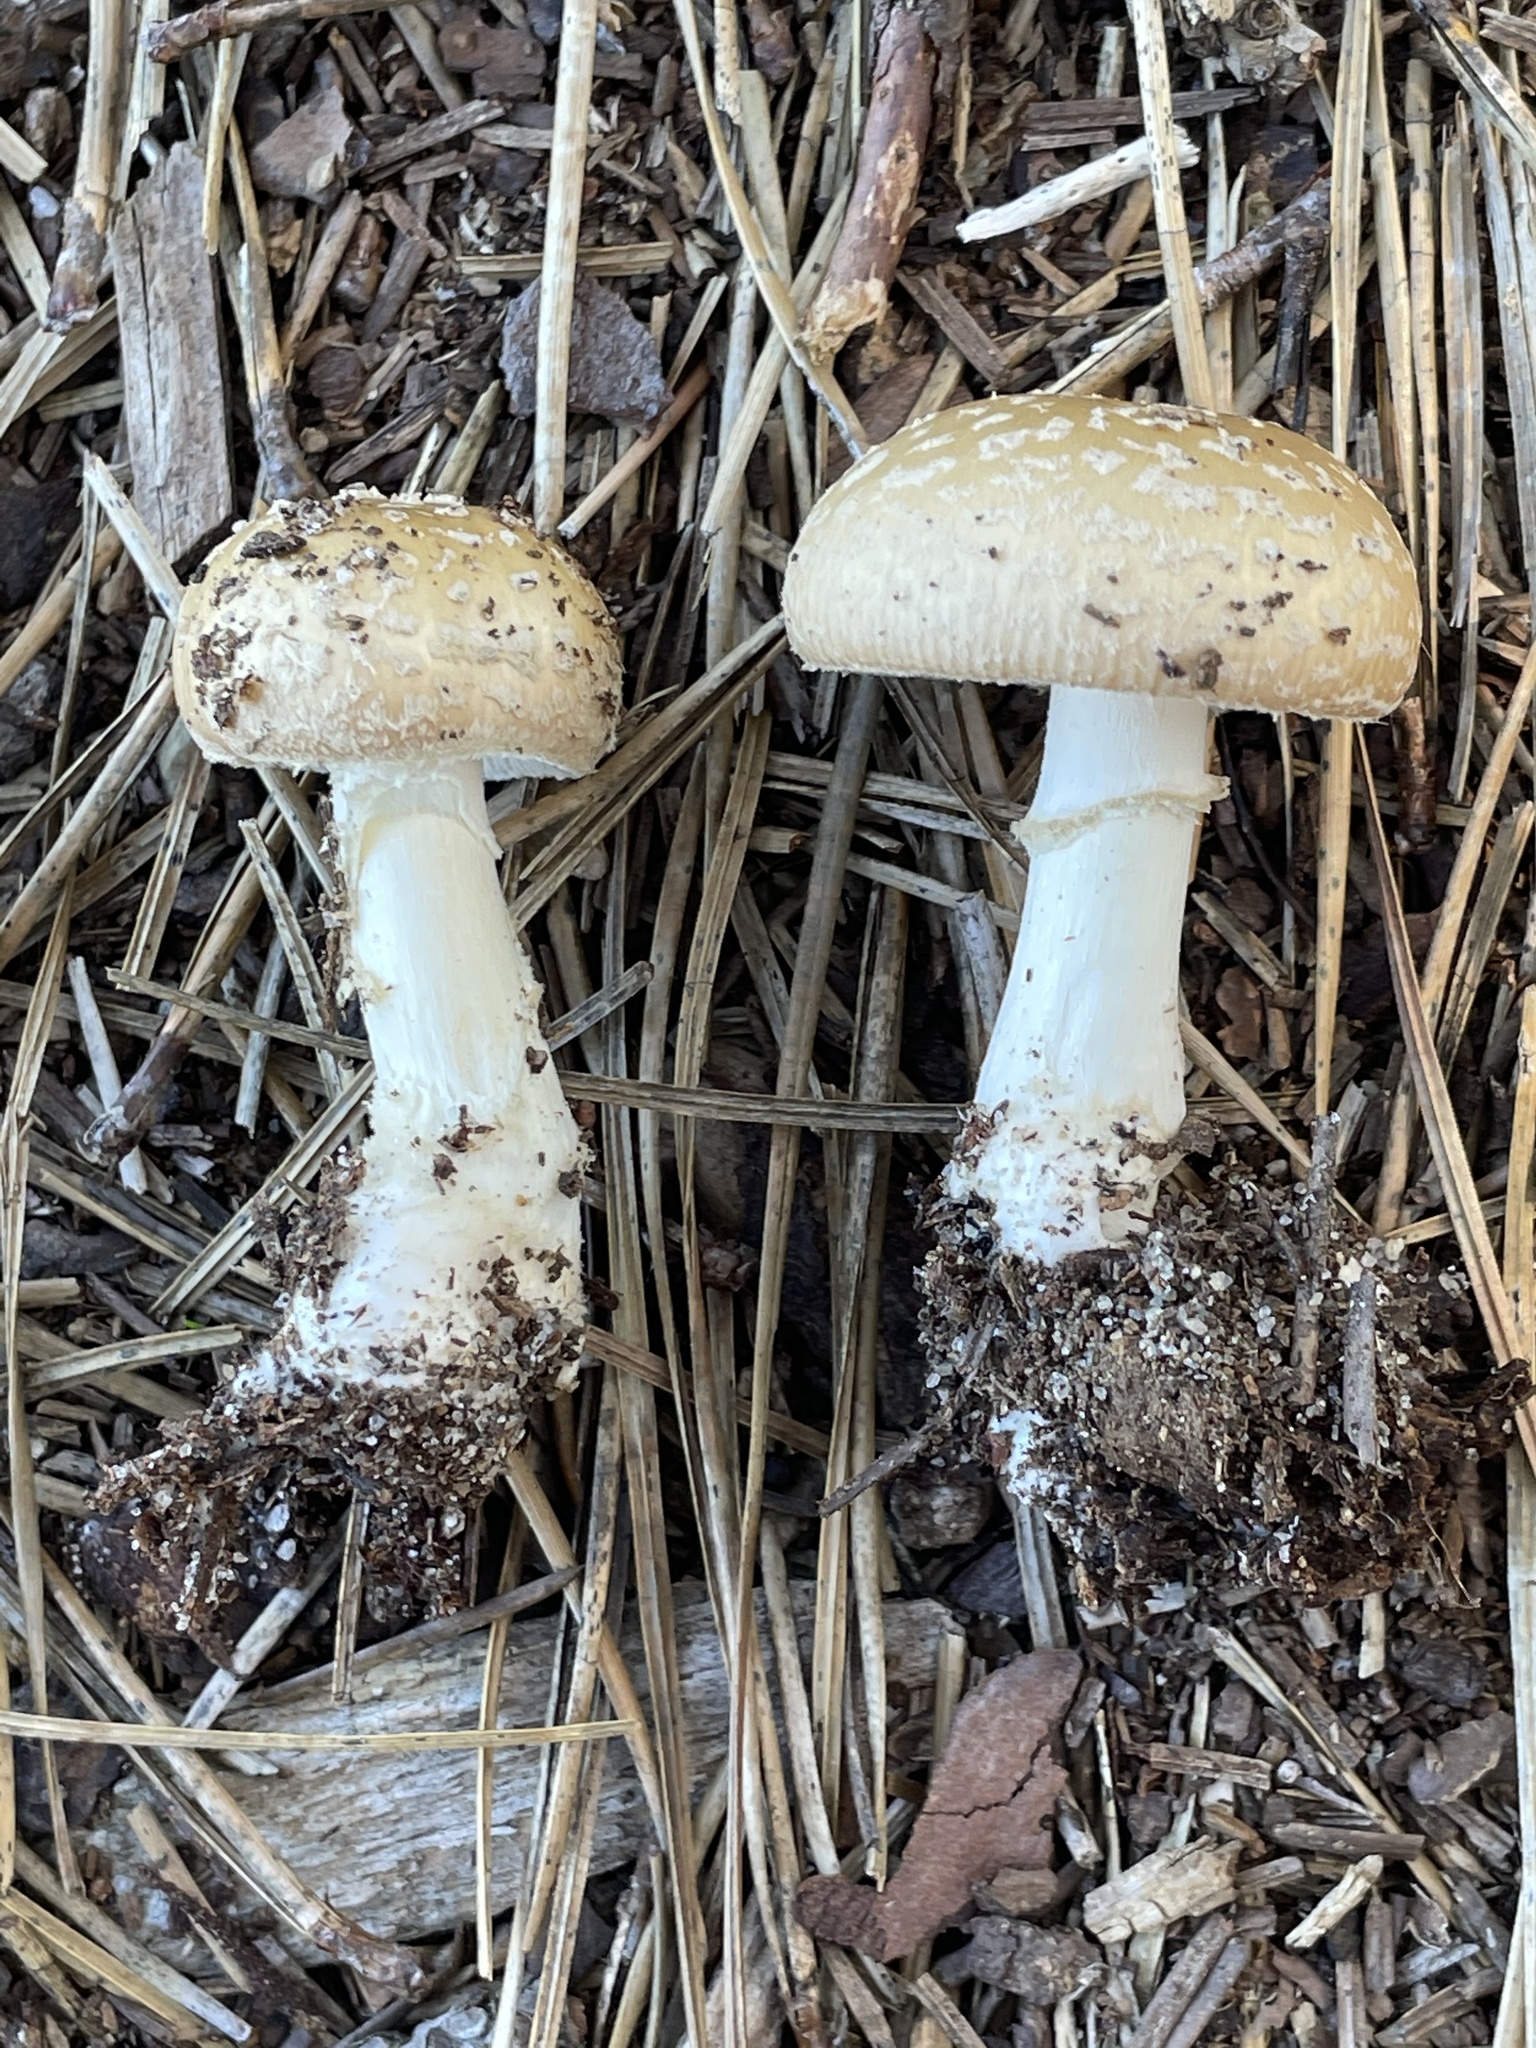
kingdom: Fungi
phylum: Basidiomycota
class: Agaricomycetes
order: Agaricales
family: Amanitaceae
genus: Amanita
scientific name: Amanita crenulata
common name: Poison champagne amanita
